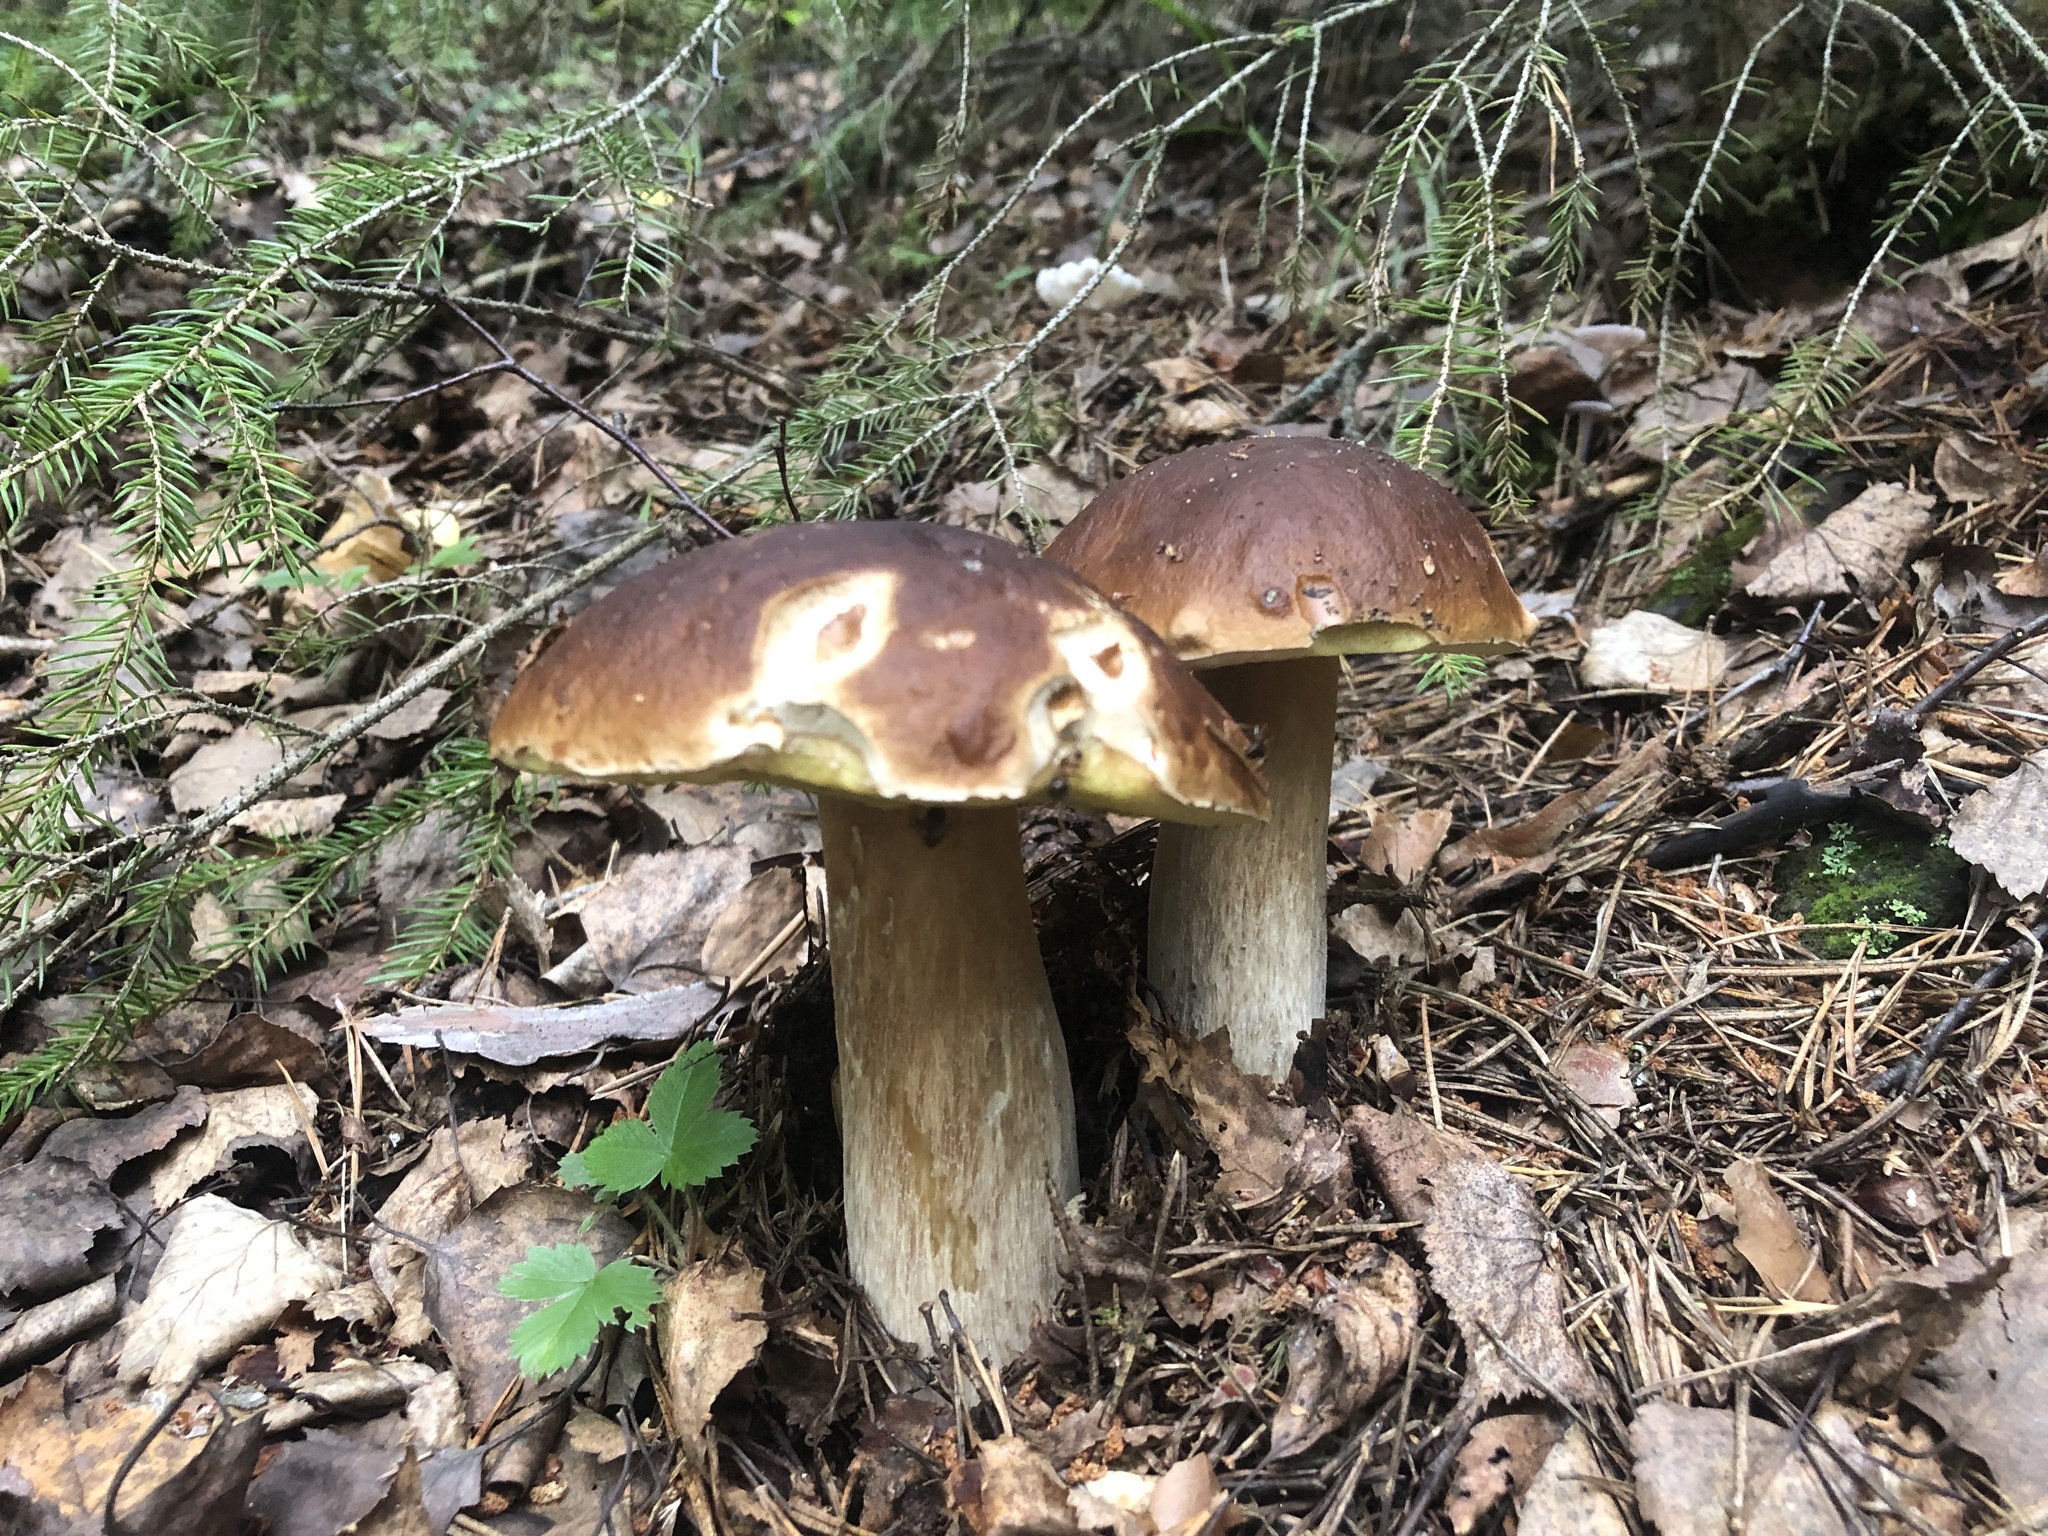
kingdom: Fungi
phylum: Basidiomycota
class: Agaricomycetes
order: Boletales
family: Boletaceae
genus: Boletus
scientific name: Boletus edulis
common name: Cep
